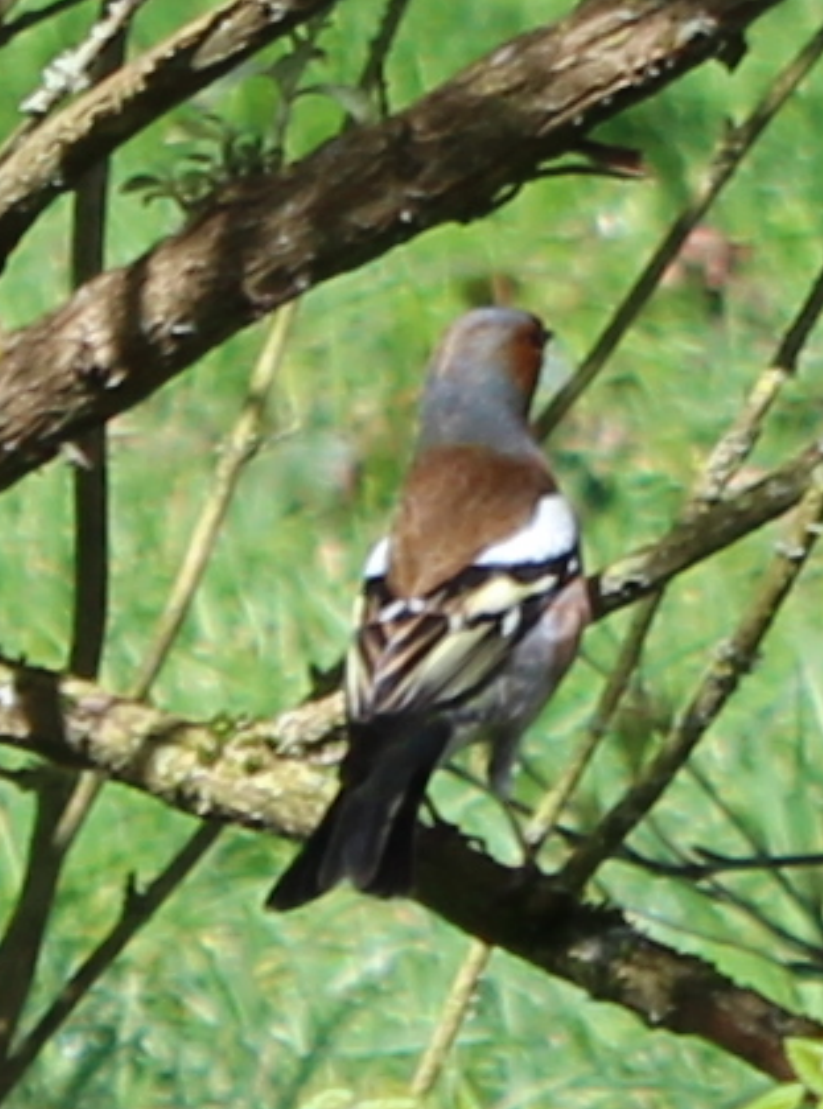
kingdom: Animalia
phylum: Chordata
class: Aves
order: Passeriformes
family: Fringillidae
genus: Fringilla
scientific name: Fringilla coelebs
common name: Common chaffinch
